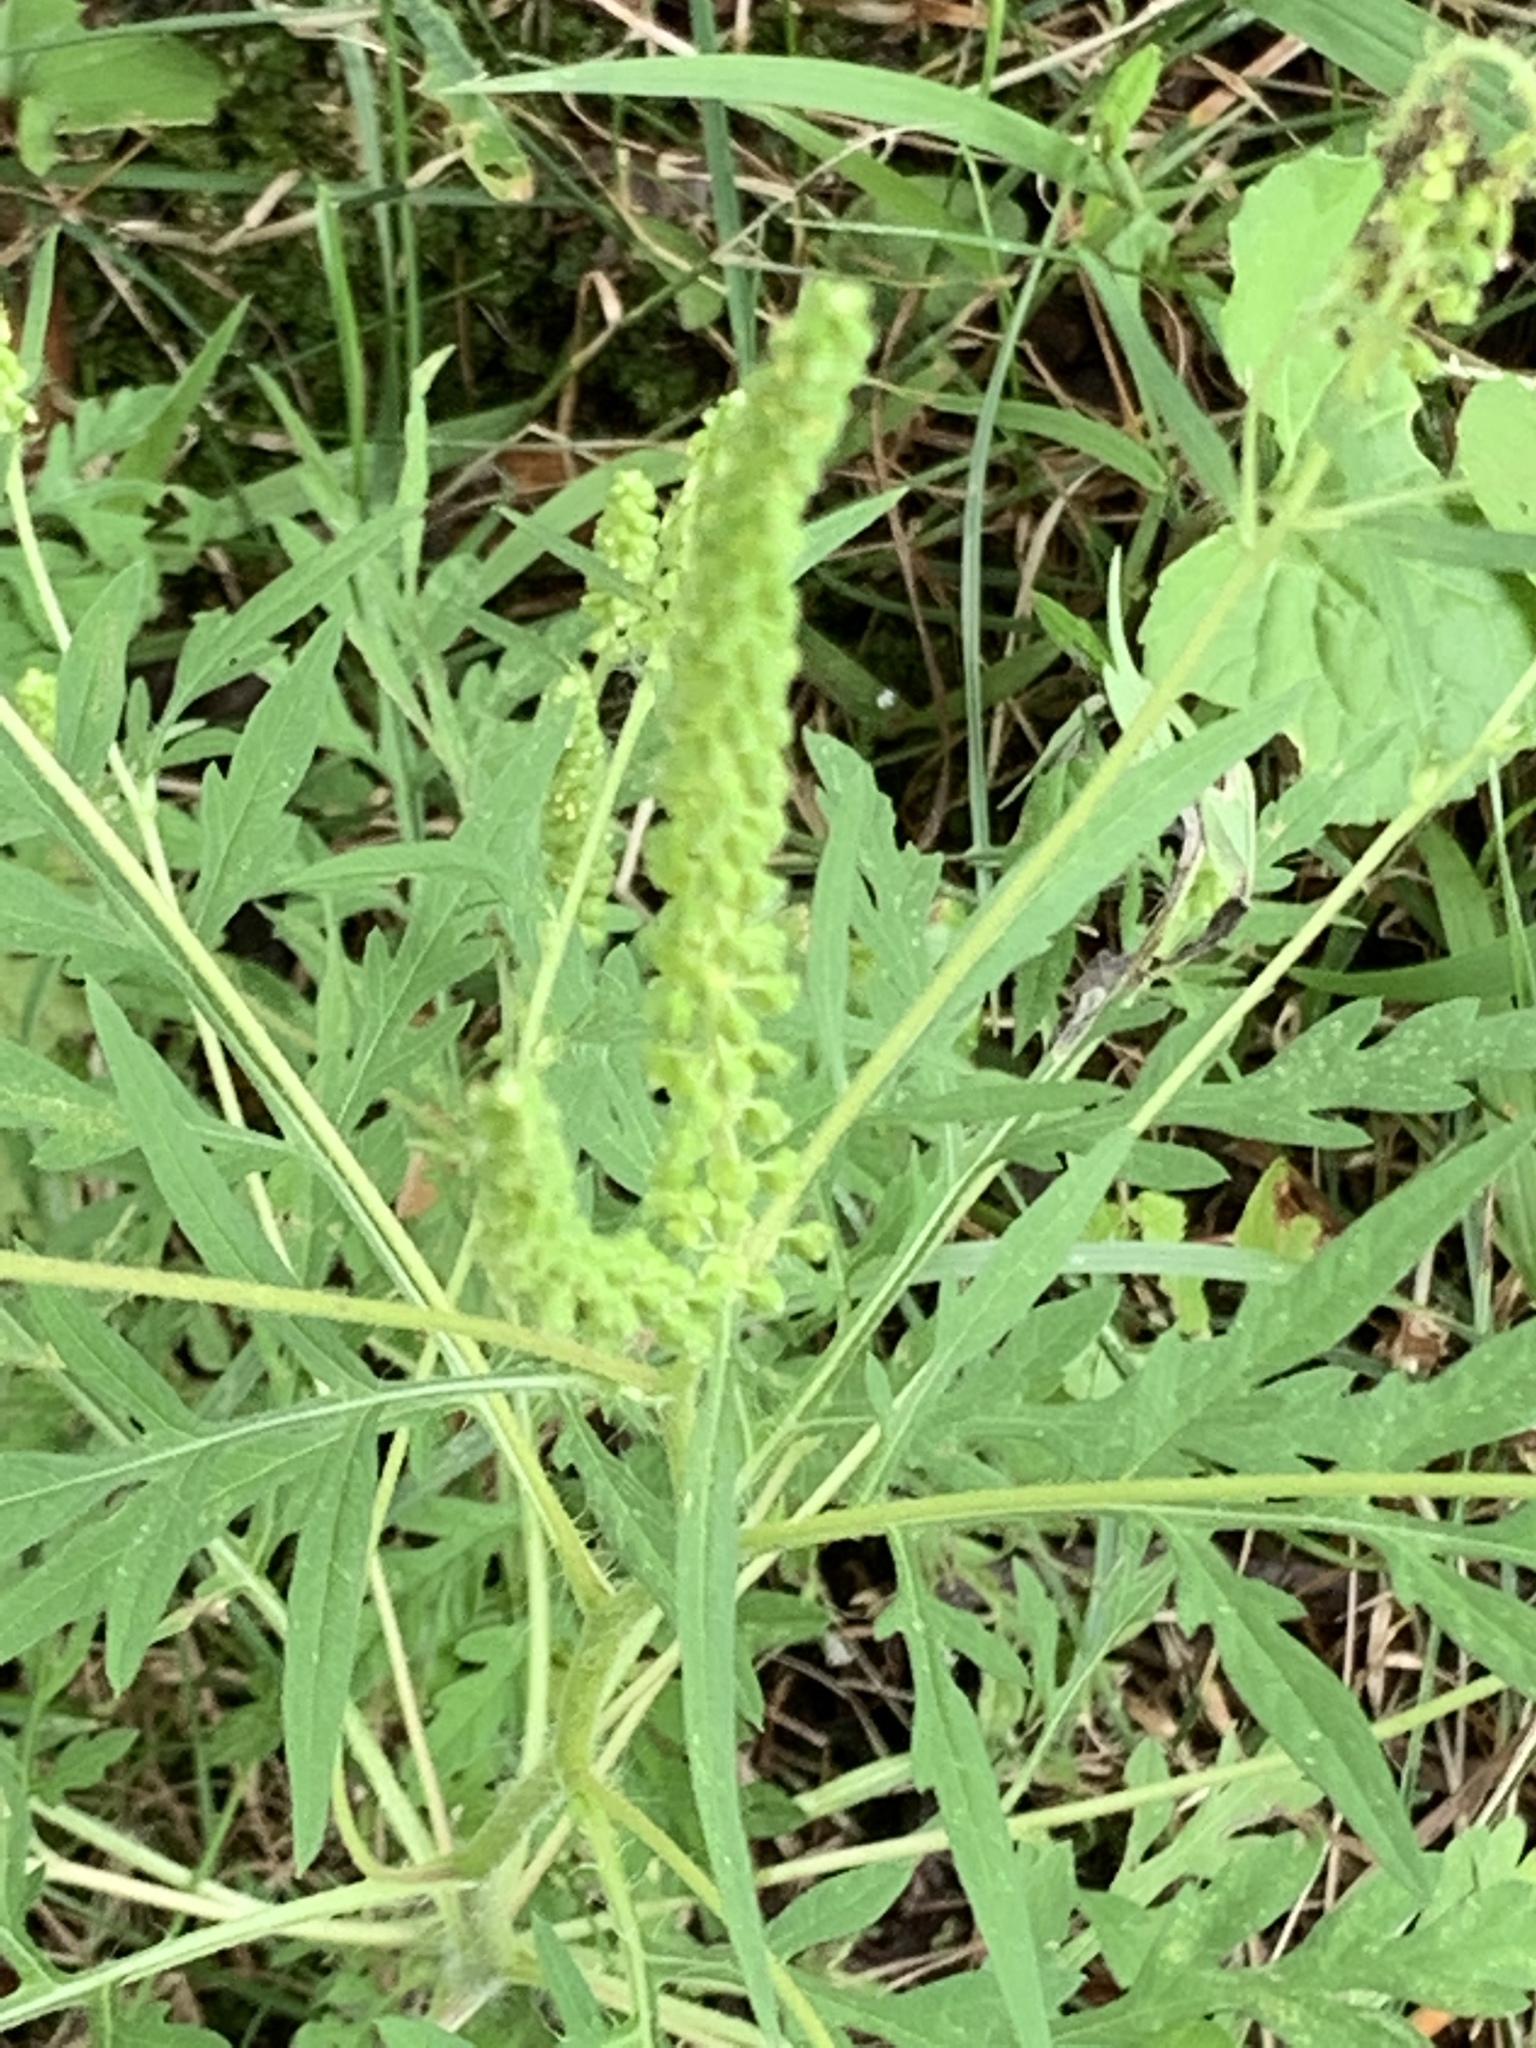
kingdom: Plantae
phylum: Tracheophyta
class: Magnoliopsida
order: Asterales
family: Asteraceae
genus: Ambrosia
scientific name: Ambrosia artemisiifolia
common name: Annual ragweed
